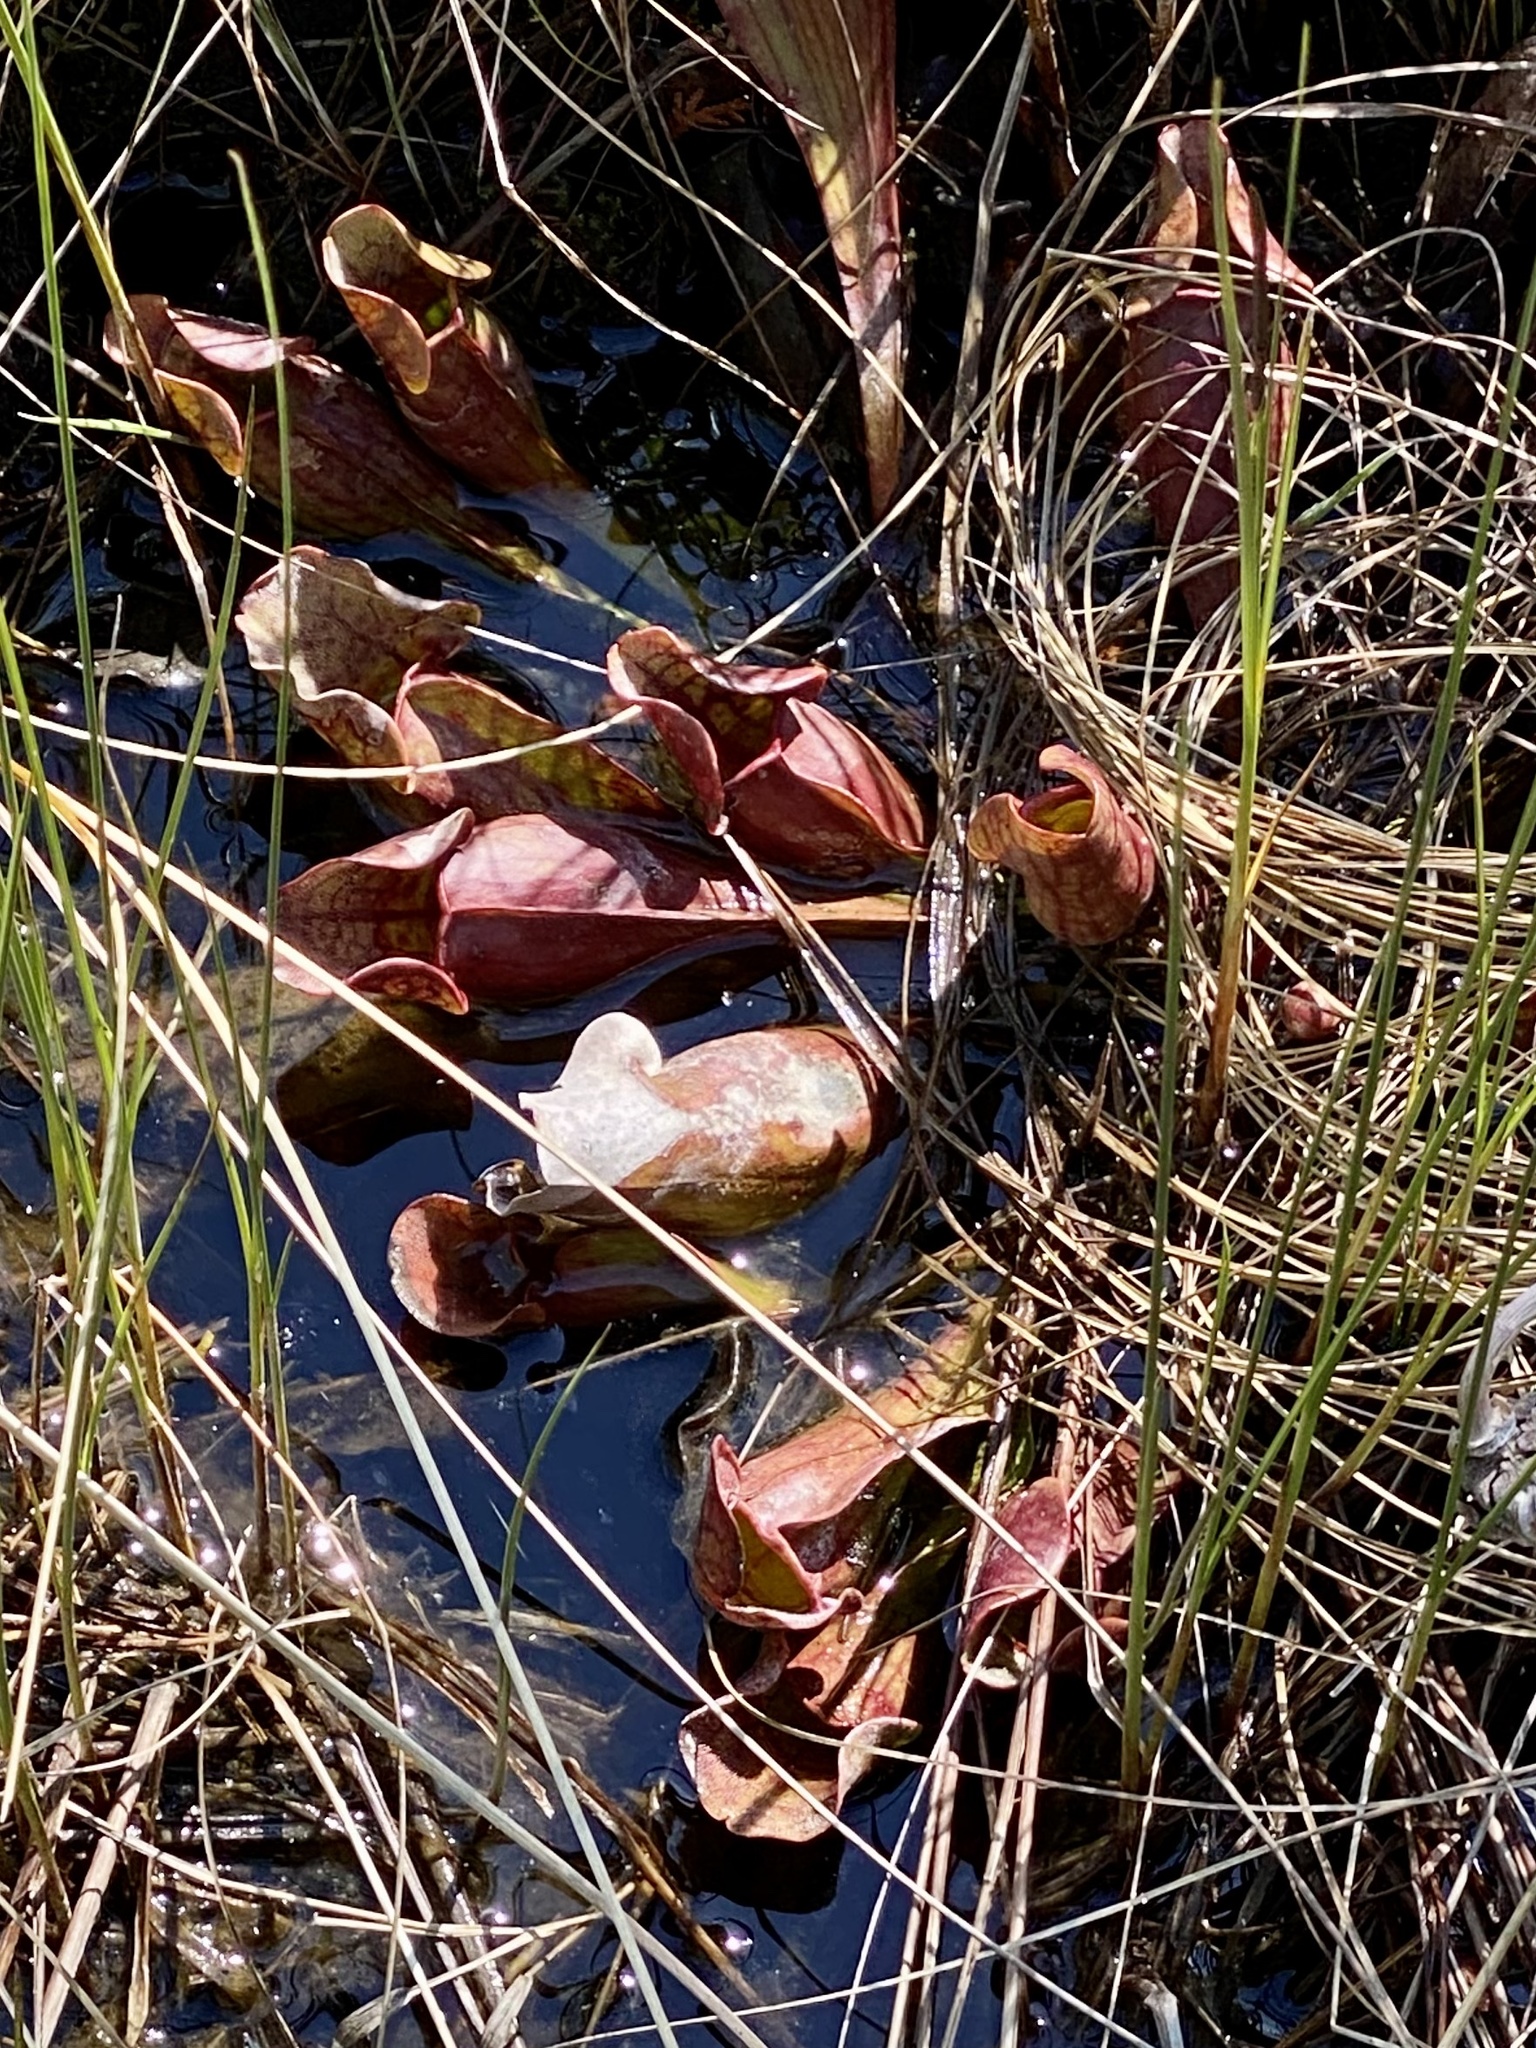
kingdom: Plantae
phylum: Tracheophyta
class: Magnoliopsida
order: Ericales
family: Sarraceniaceae
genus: Sarracenia
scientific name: Sarracenia purpurea
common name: Pitcherplant
